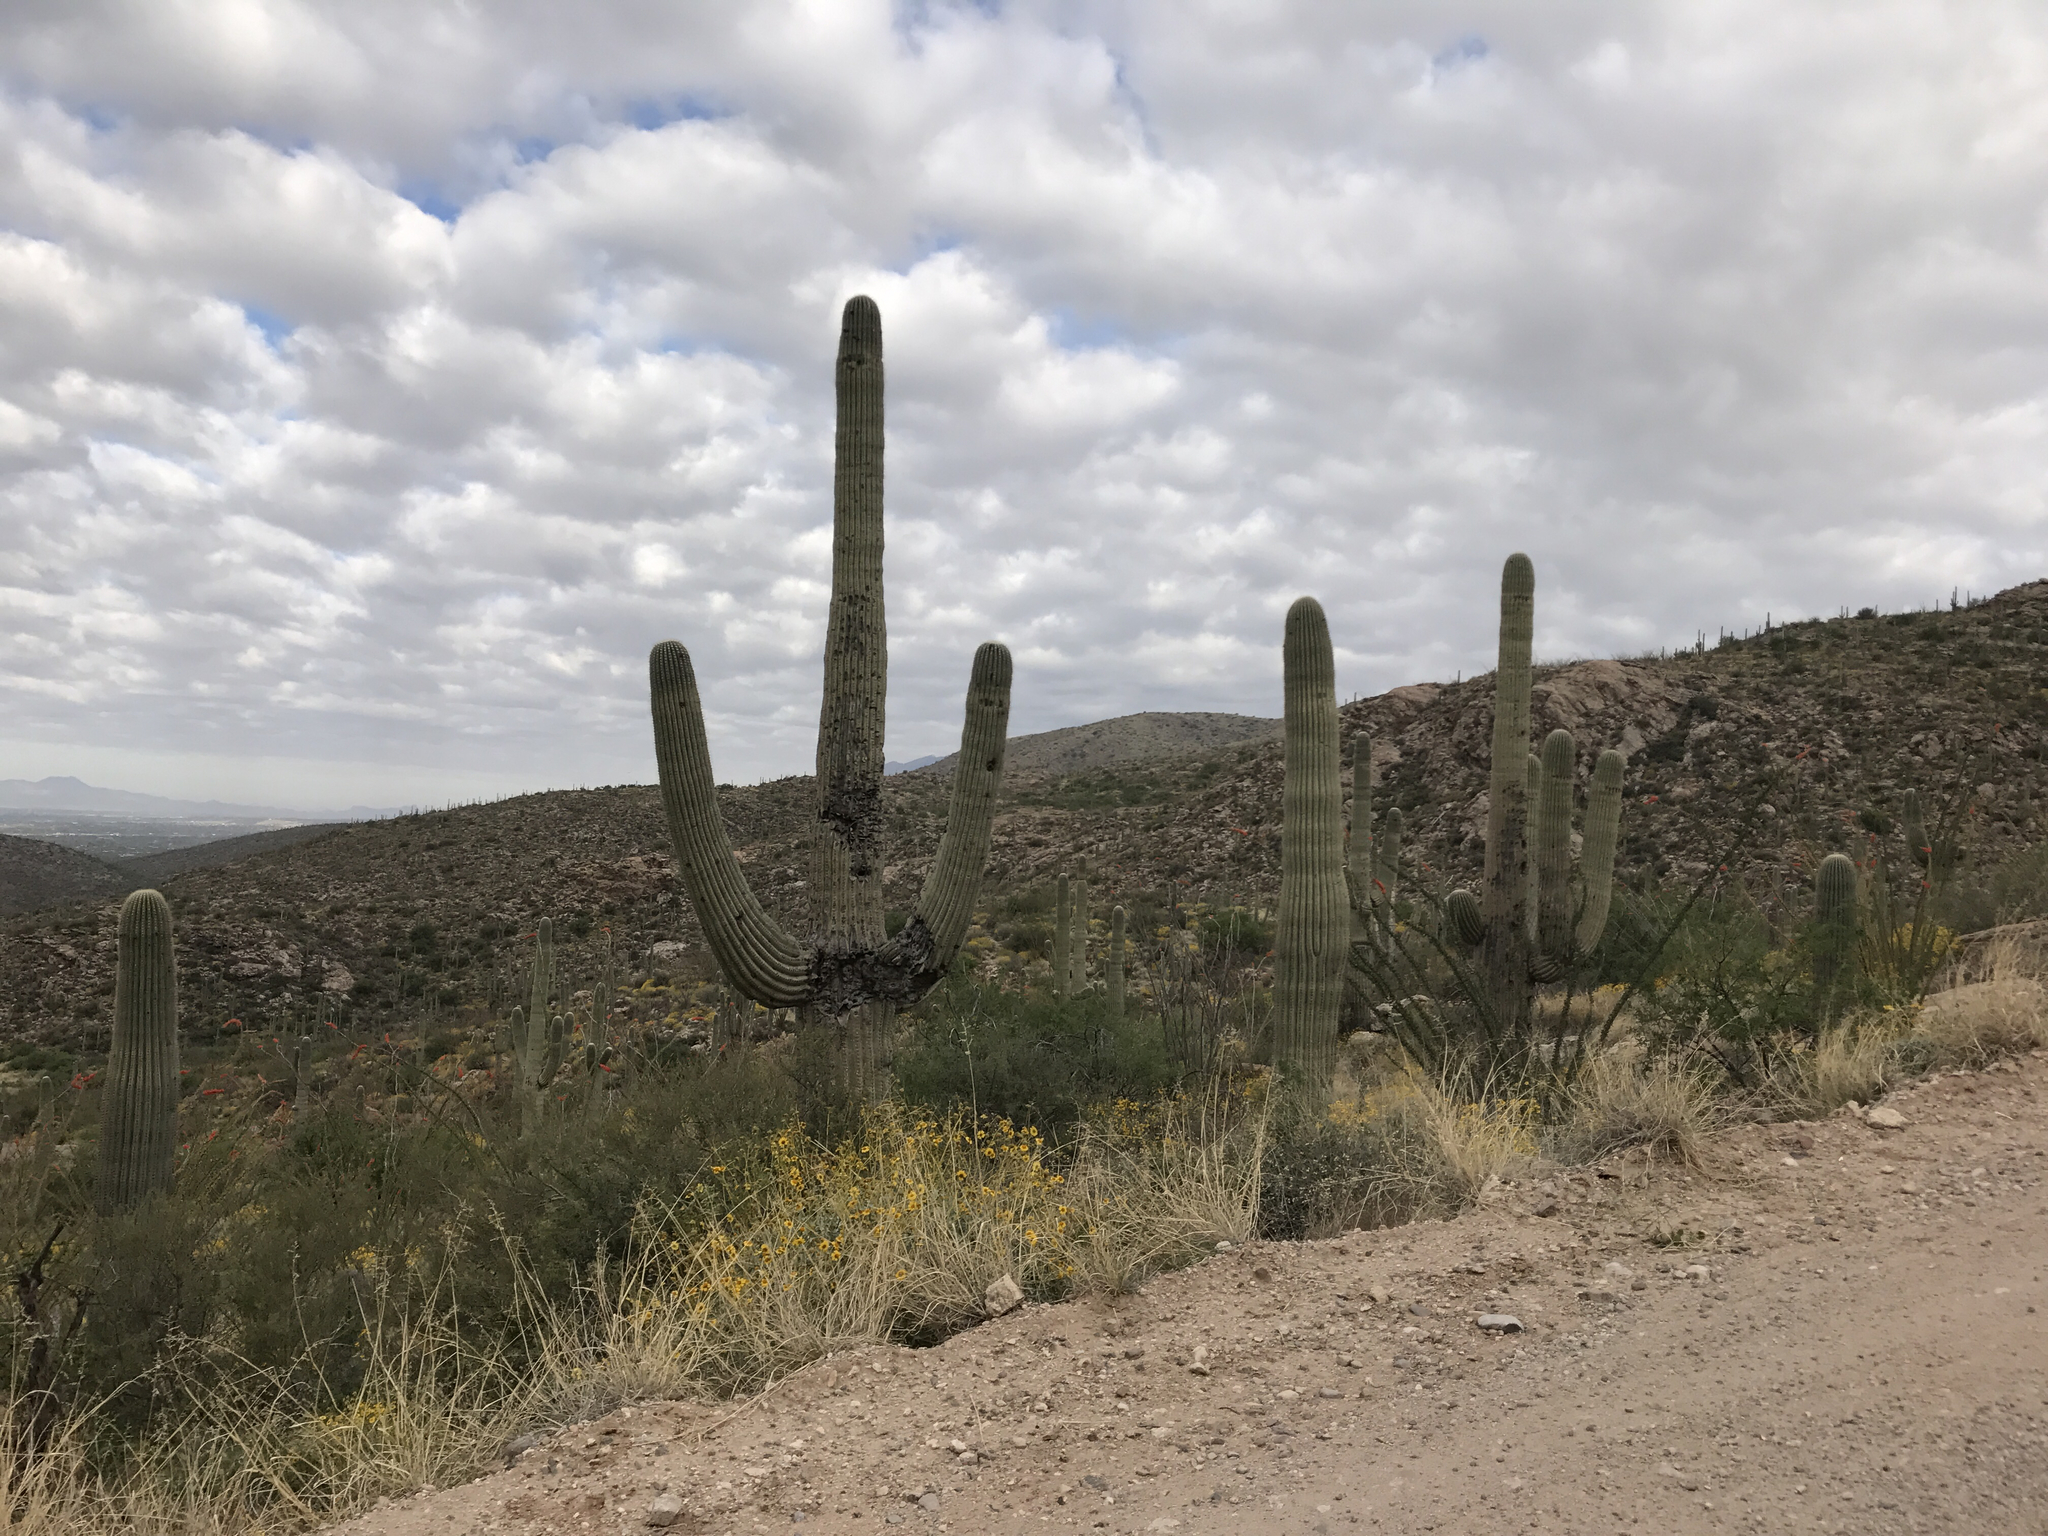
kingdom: Plantae
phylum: Tracheophyta
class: Magnoliopsida
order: Caryophyllales
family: Cactaceae
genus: Carnegiea
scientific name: Carnegiea gigantea
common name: Saguaro
